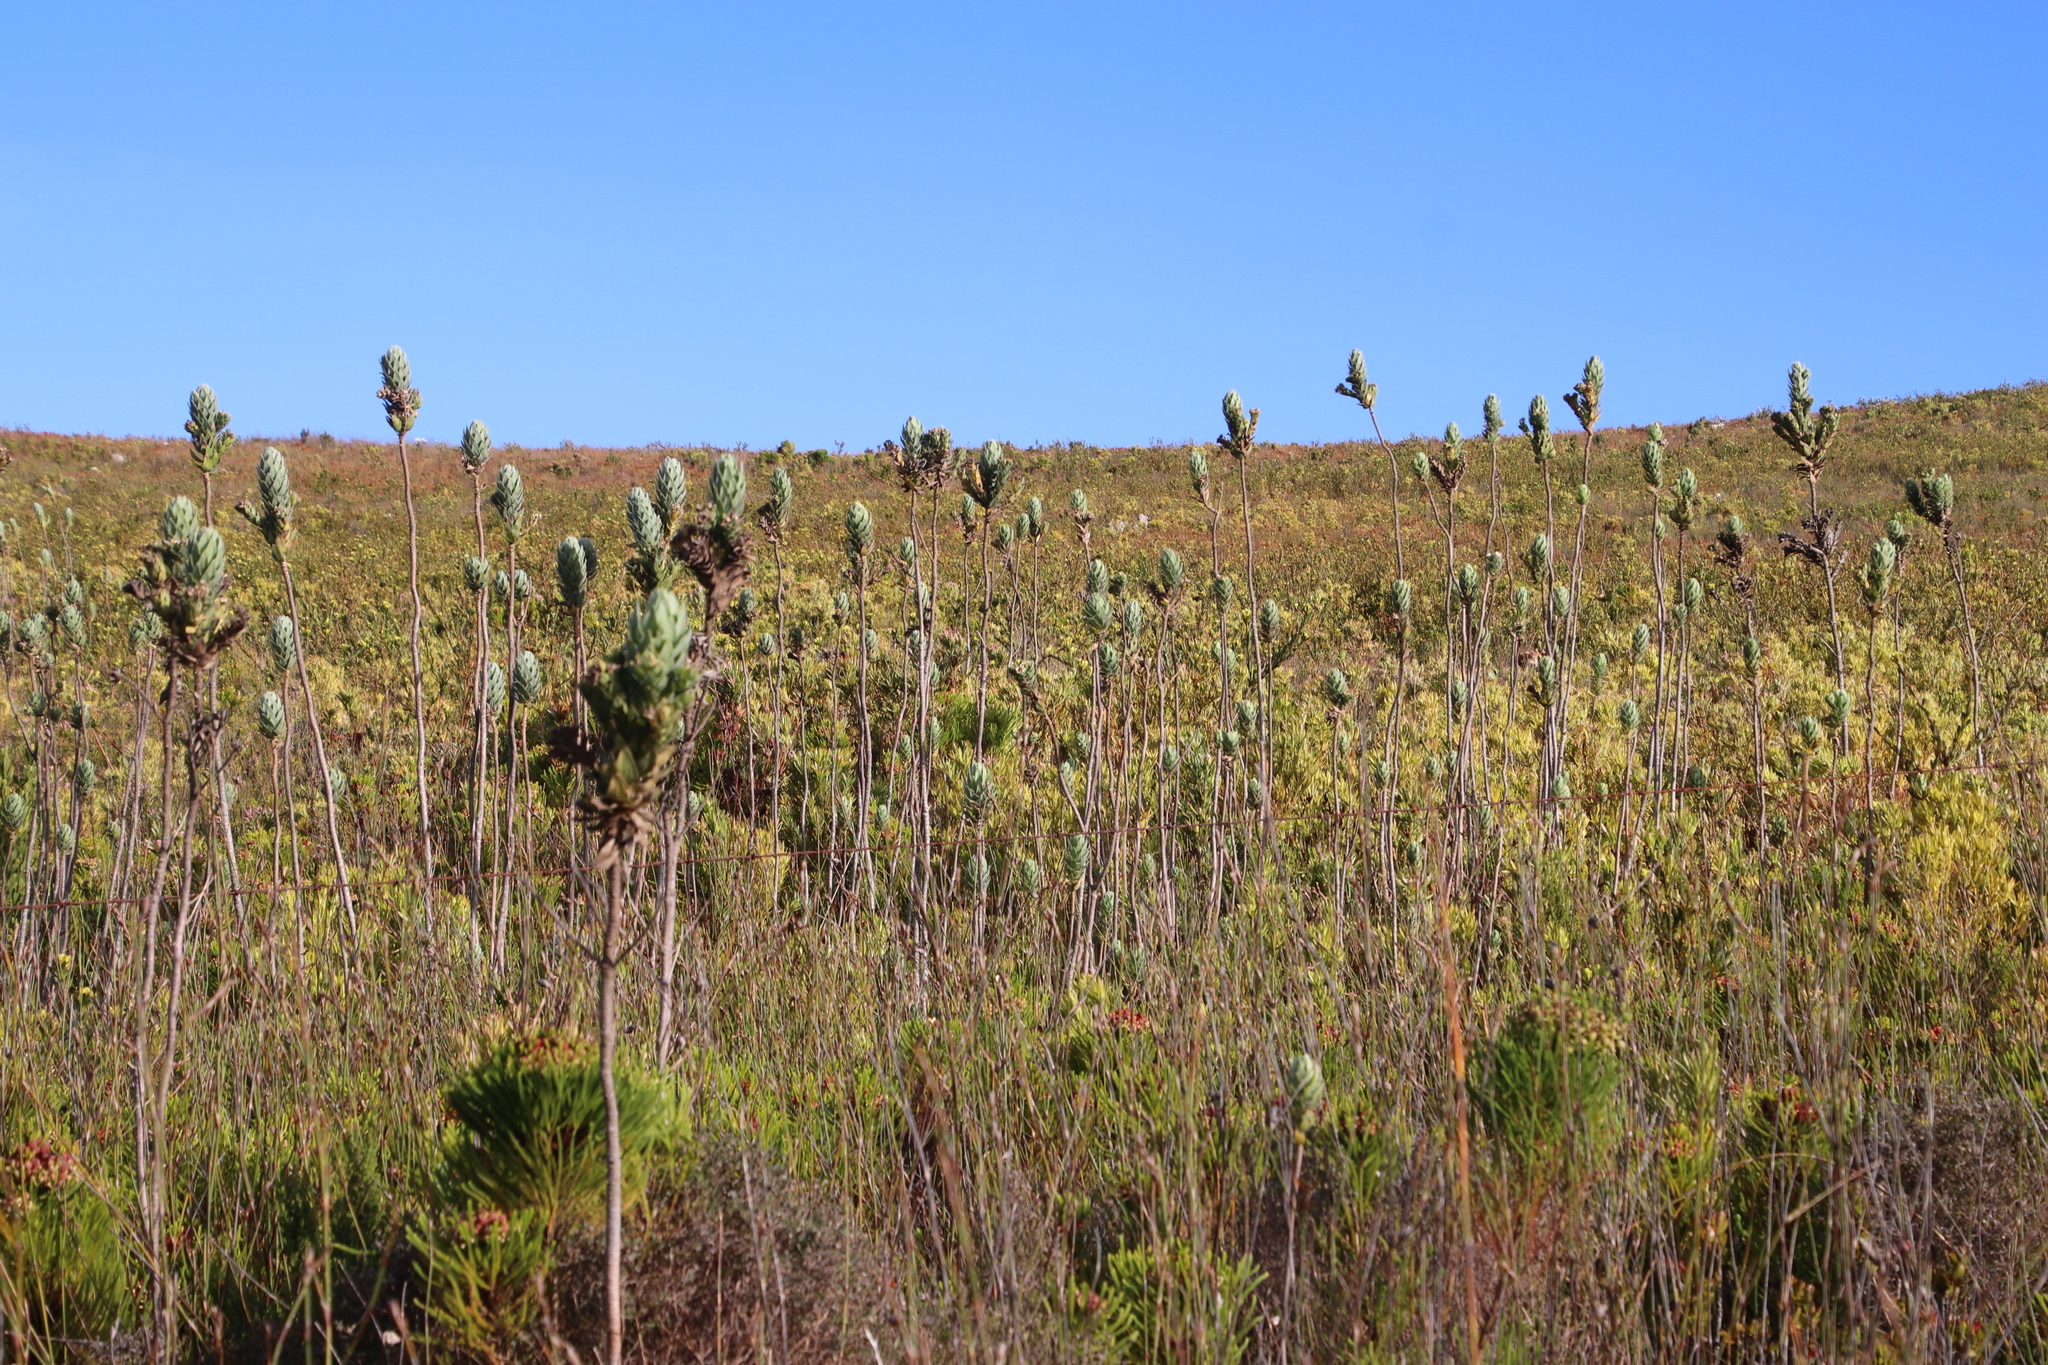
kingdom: Plantae
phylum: Tracheophyta
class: Magnoliopsida
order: Asterales
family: Asteraceae
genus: Osmitopsis
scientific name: Osmitopsis asteriscoides
